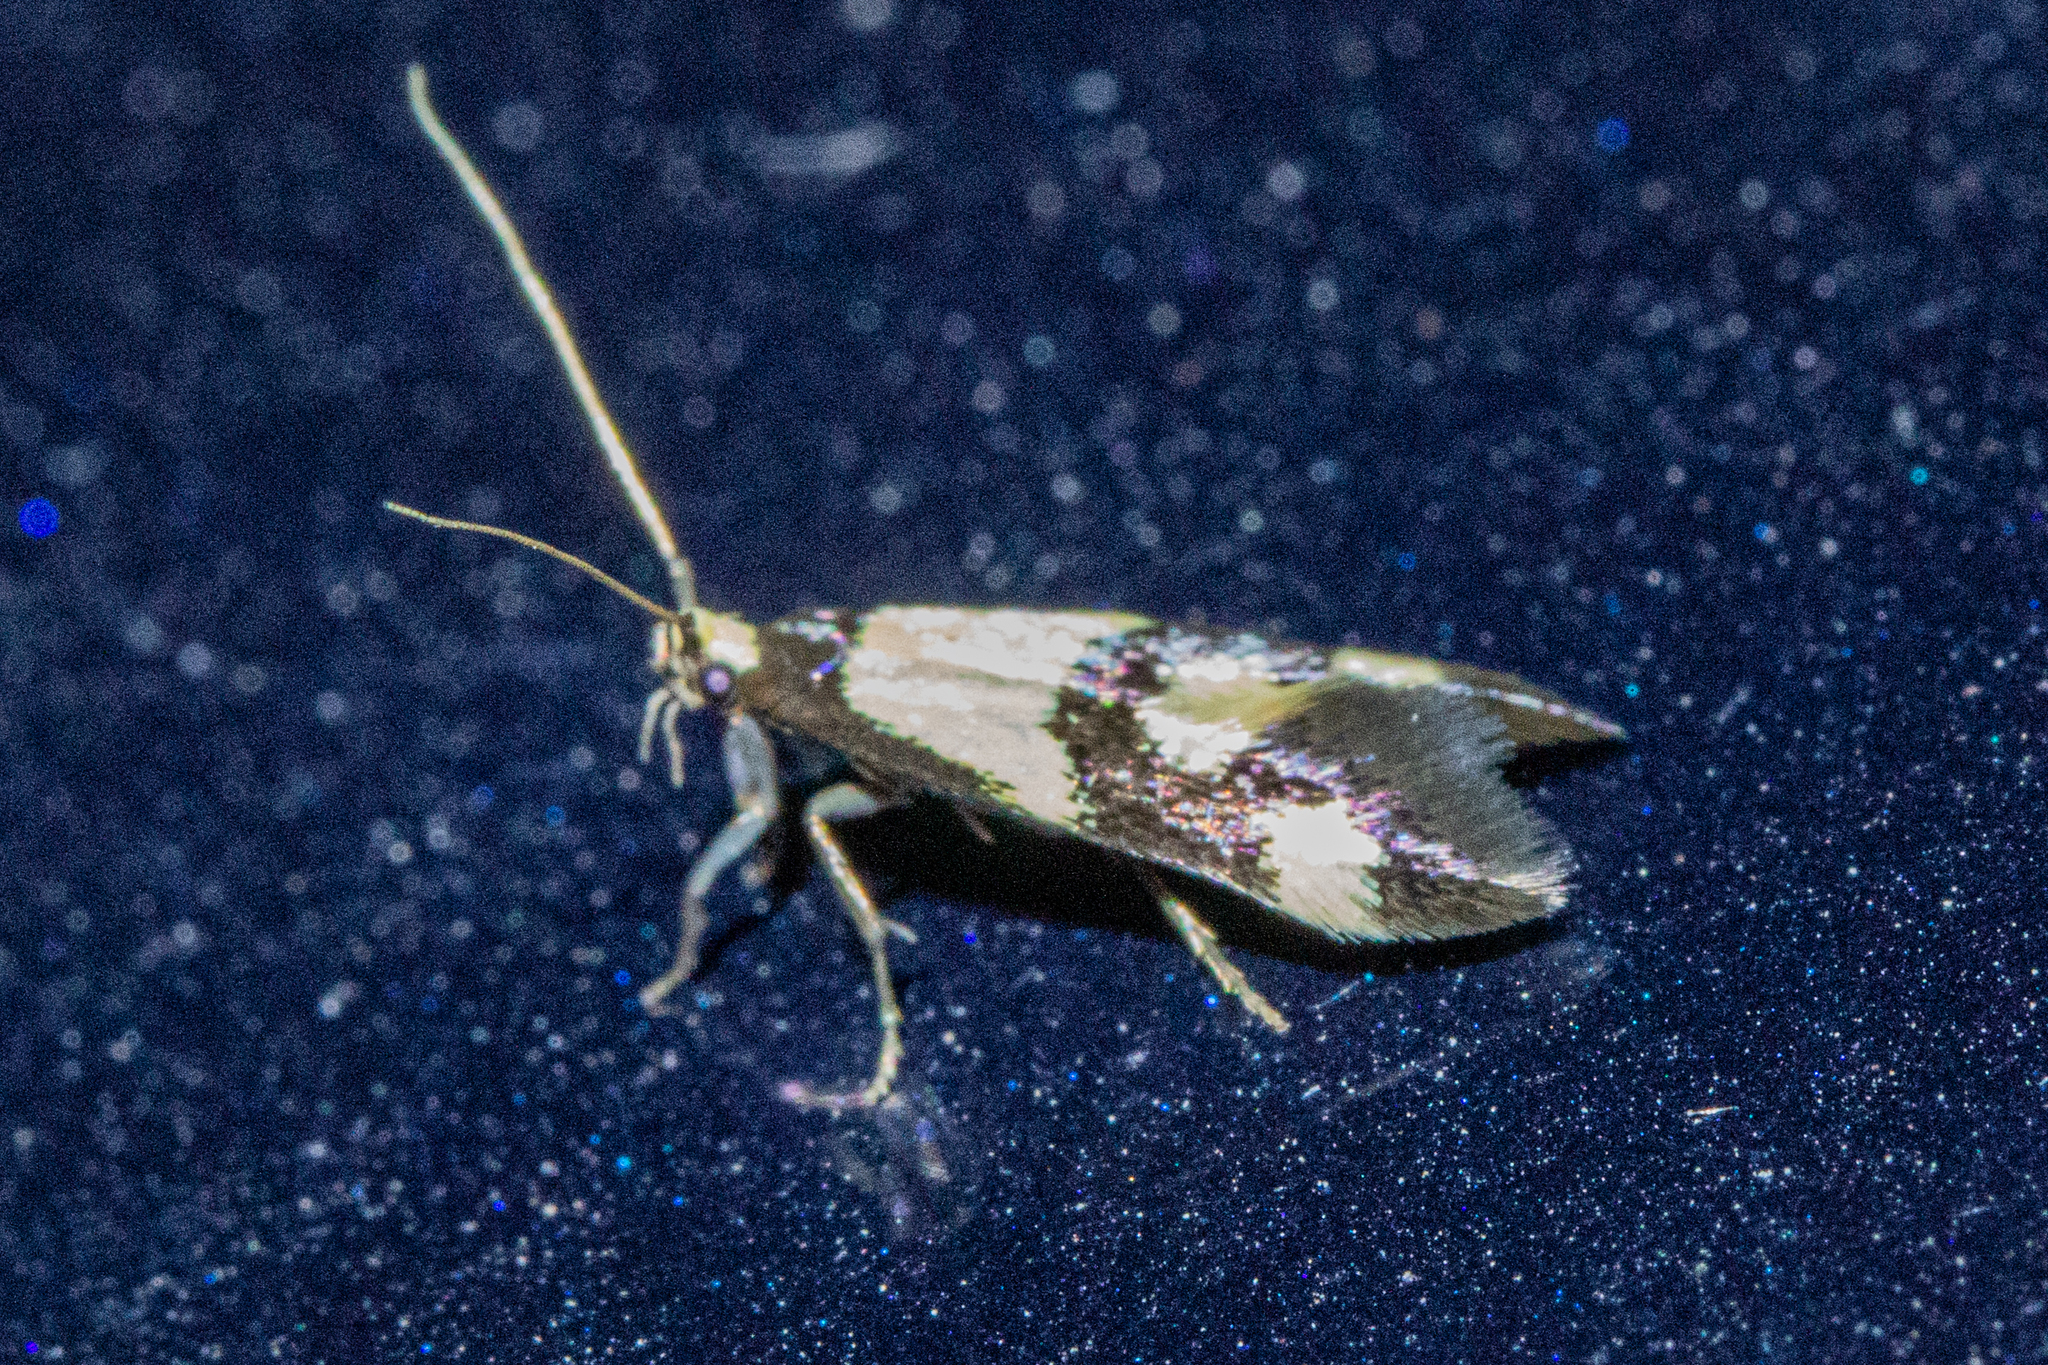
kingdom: Animalia
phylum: Arthropoda
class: Insecta
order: Lepidoptera
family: Tineidae
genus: Opogona
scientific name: Opogona comptella
